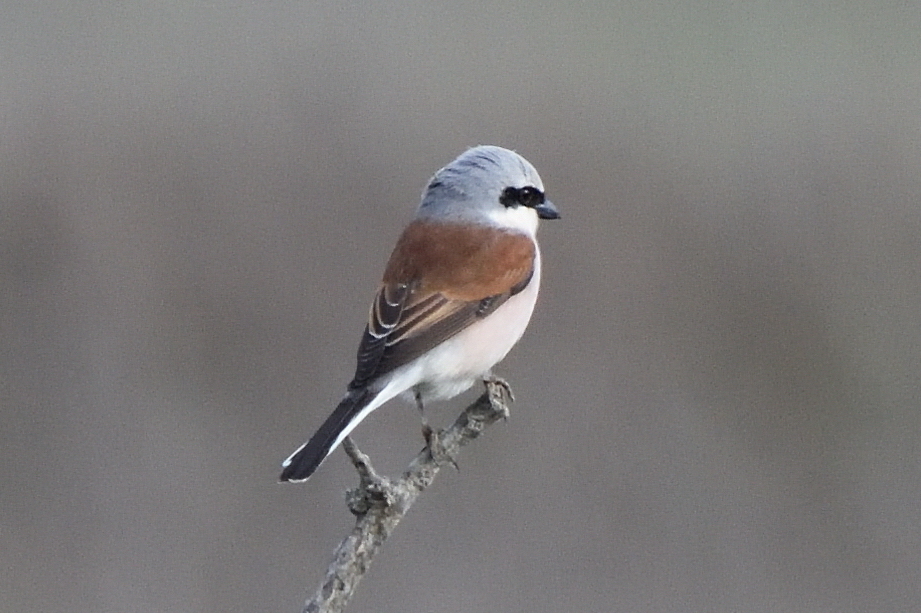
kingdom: Animalia
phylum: Chordata
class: Aves
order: Passeriformes
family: Laniidae
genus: Lanius
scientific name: Lanius collurio
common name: Red-backed shrike
